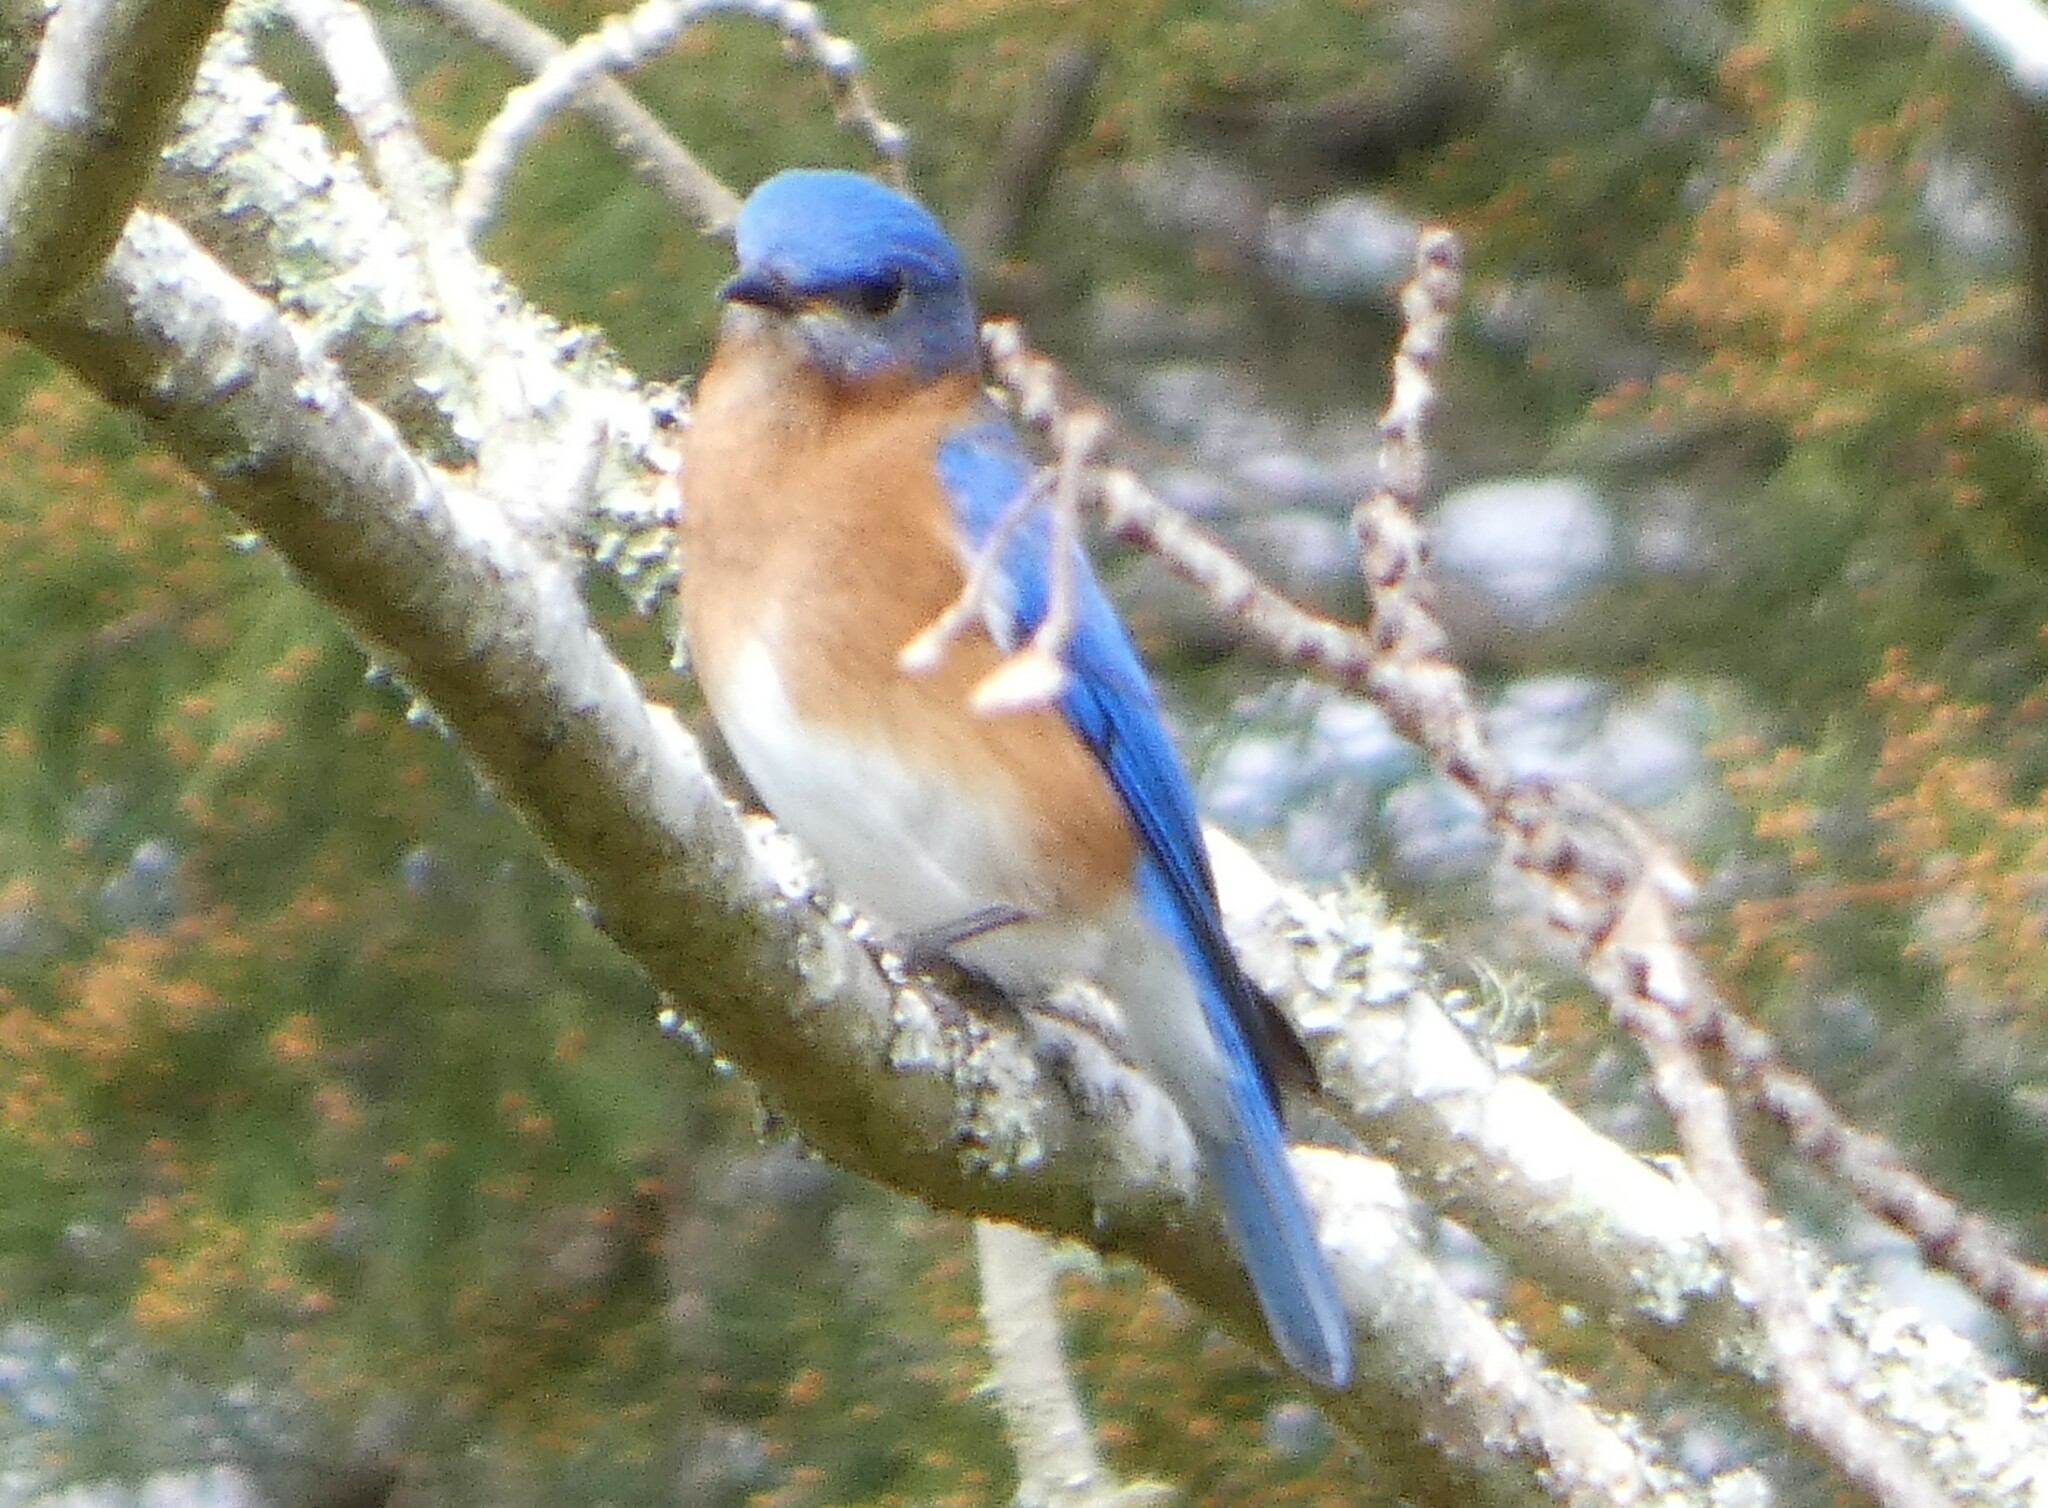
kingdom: Animalia
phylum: Chordata
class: Aves
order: Passeriformes
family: Turdidae
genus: Sialia
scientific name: Sialia sialis
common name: Eastern bluebird
